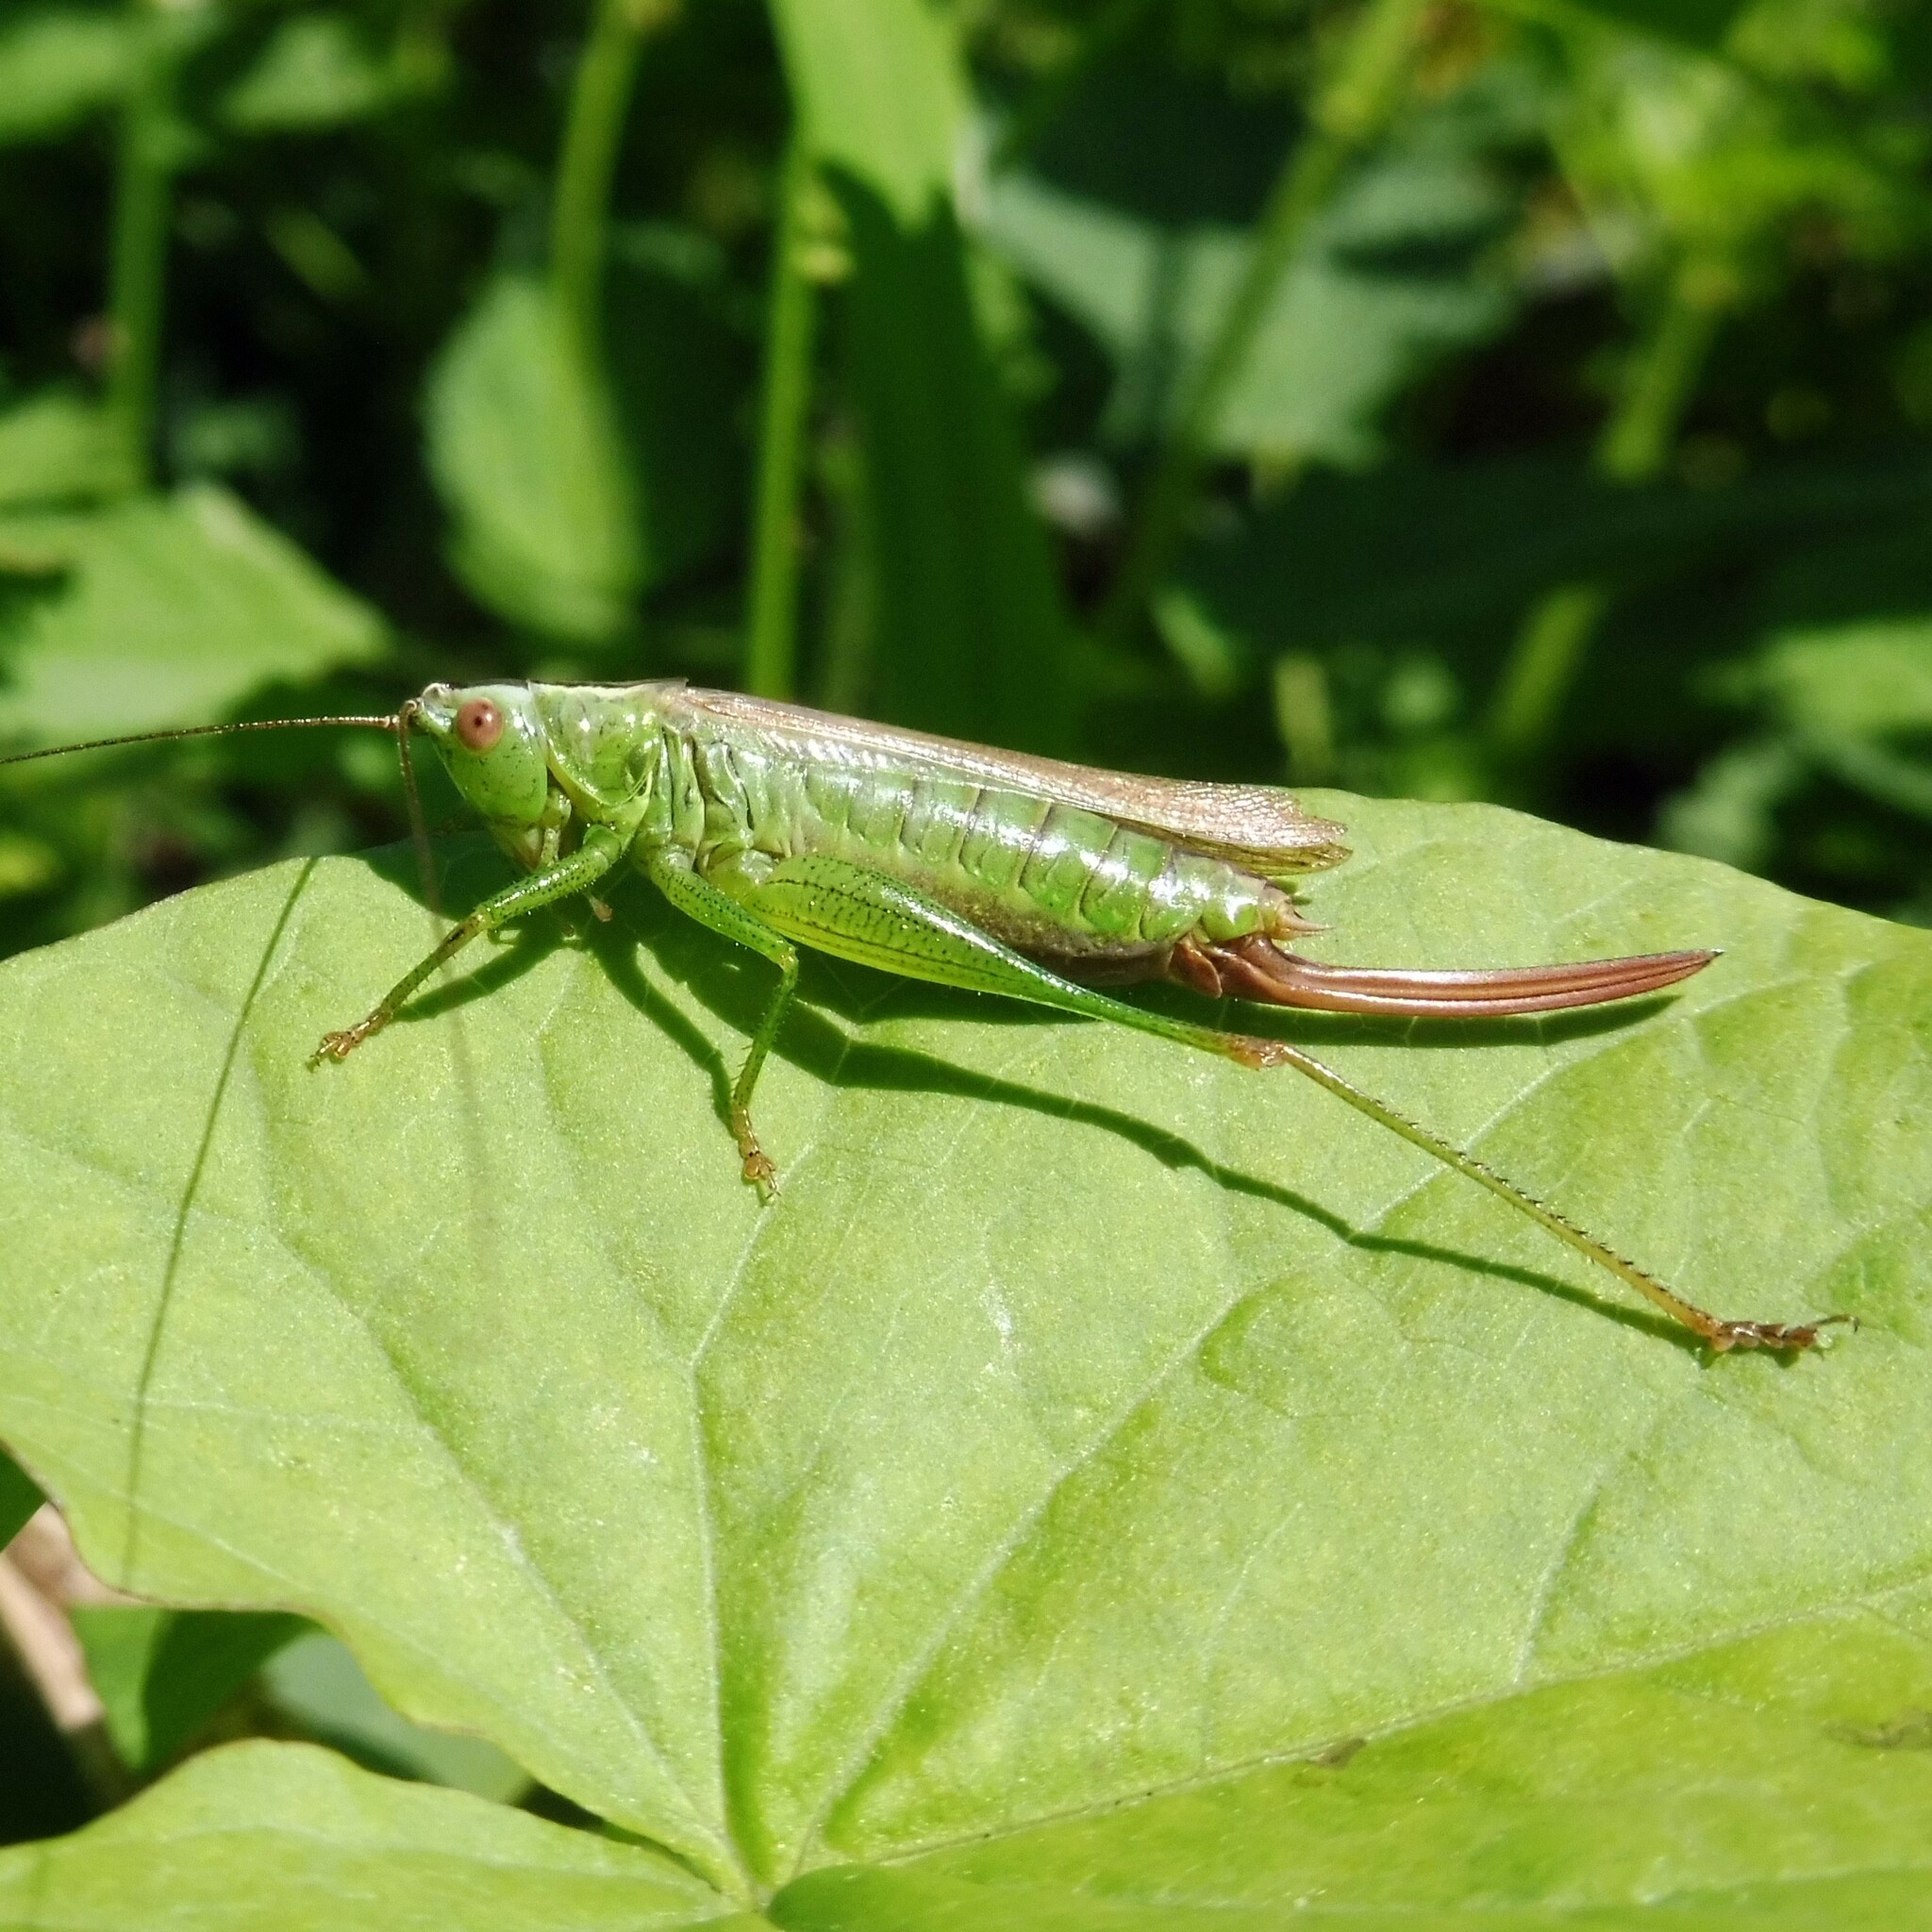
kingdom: Animalia
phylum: Arthropoda
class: Insecta
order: Orthoptera
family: Tettigoniidae
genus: Conocephalus
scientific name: Conocephalus fuscus
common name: Long-winged conehead
